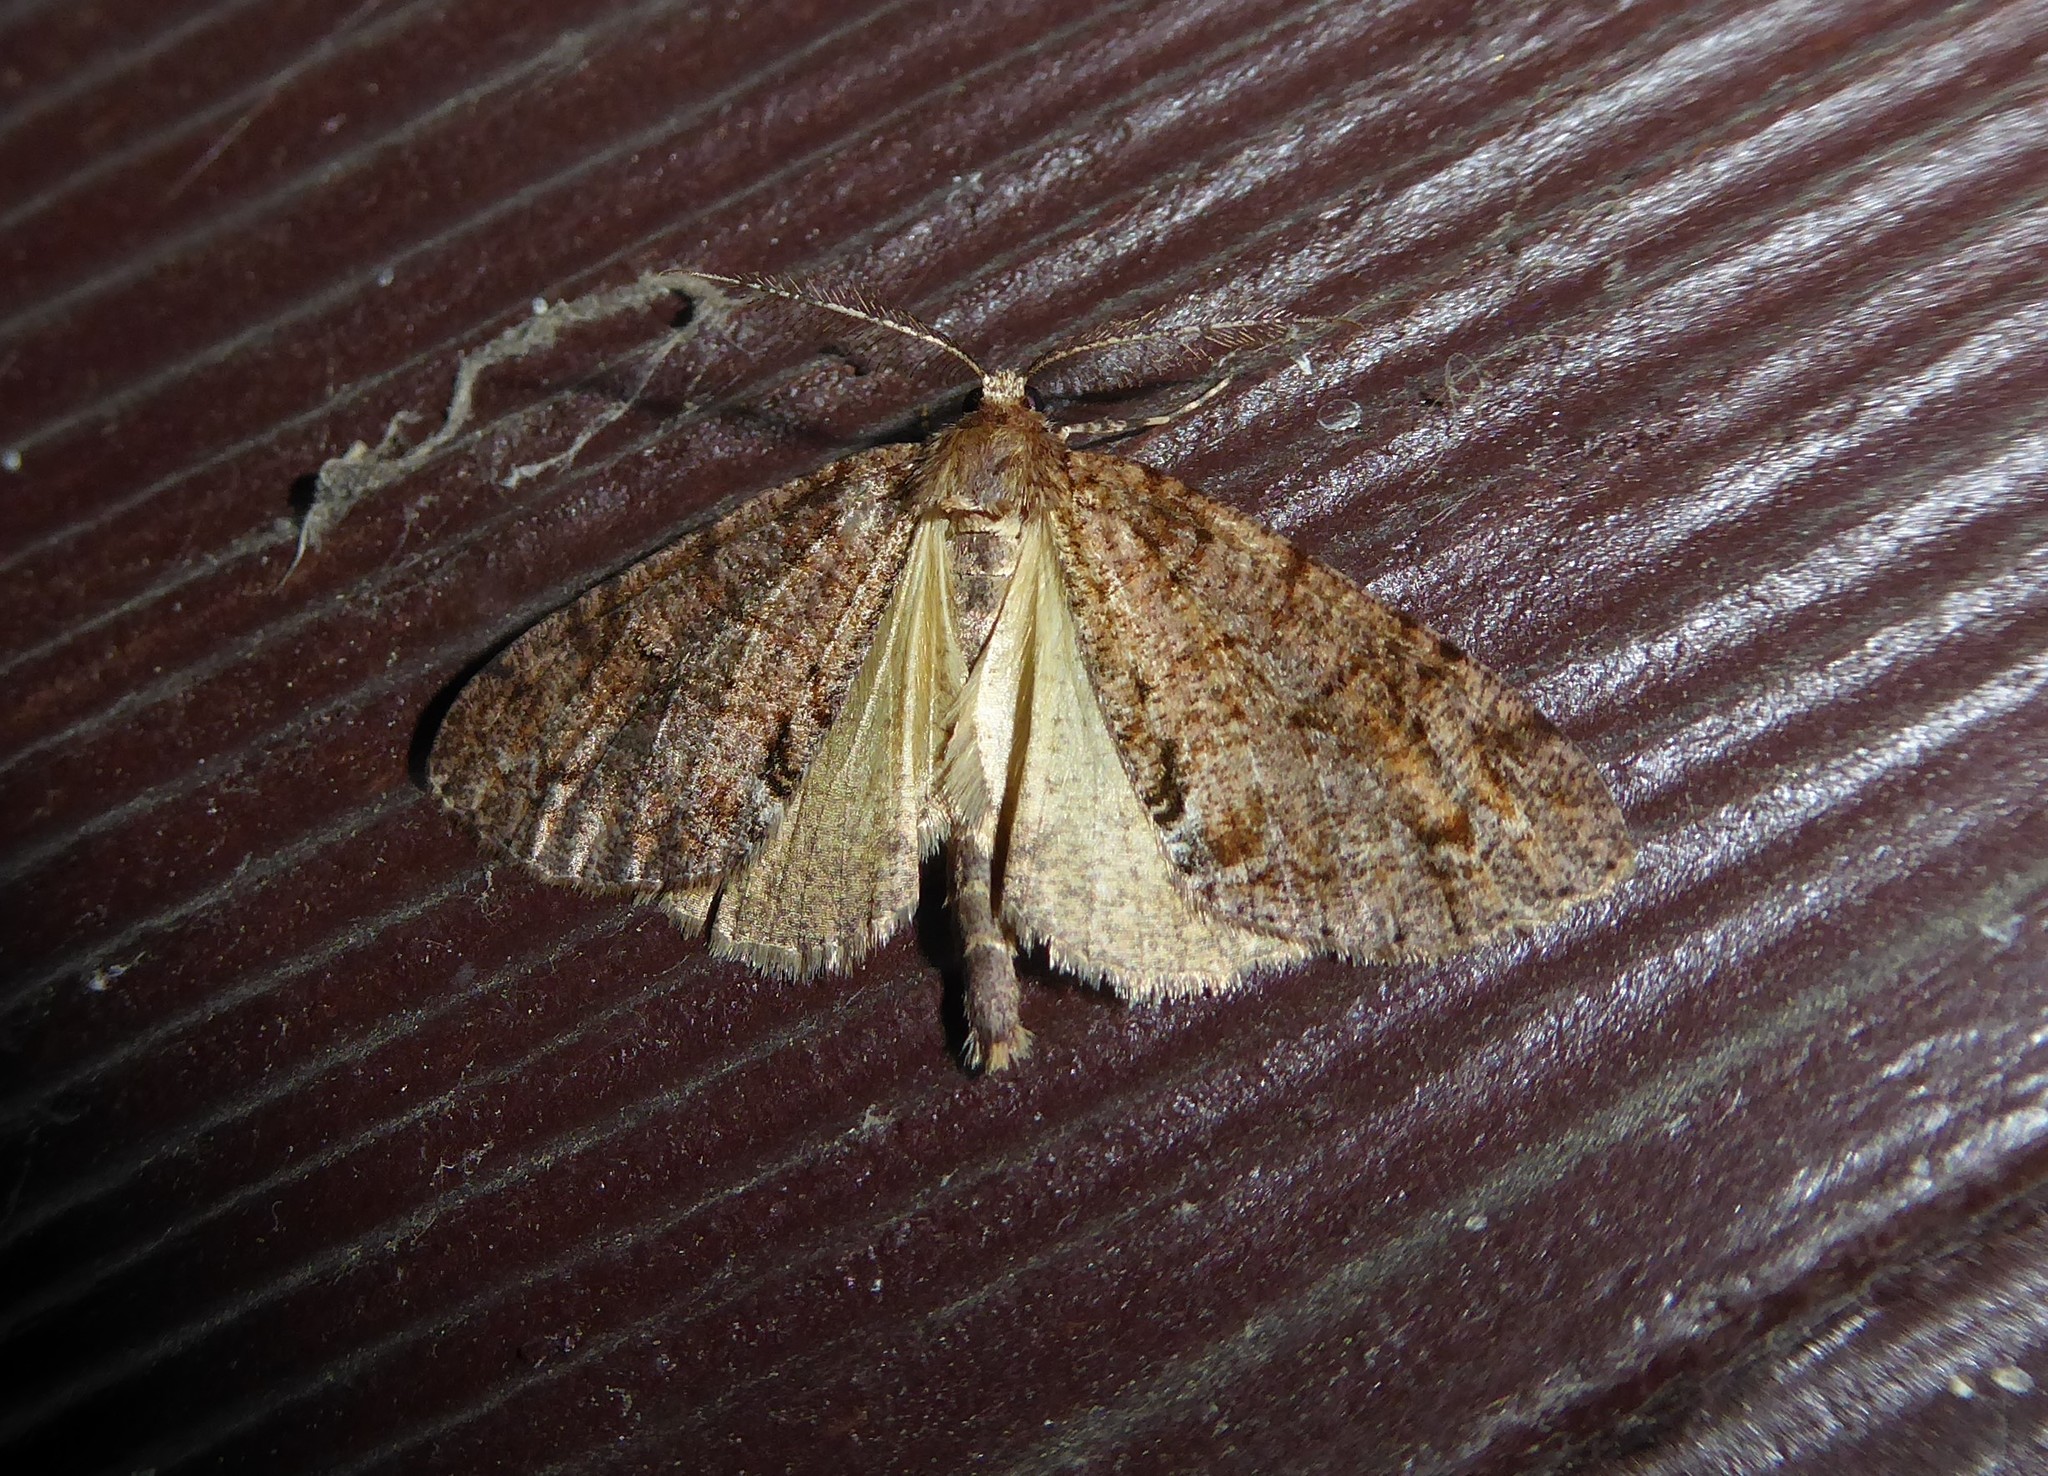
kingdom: Animalia
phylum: Arthropoda
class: Insecta
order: Lepidoptera
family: Geometridae
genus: Pseudocoremia
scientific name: Pseudocoremia suavis
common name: Common forest looper
